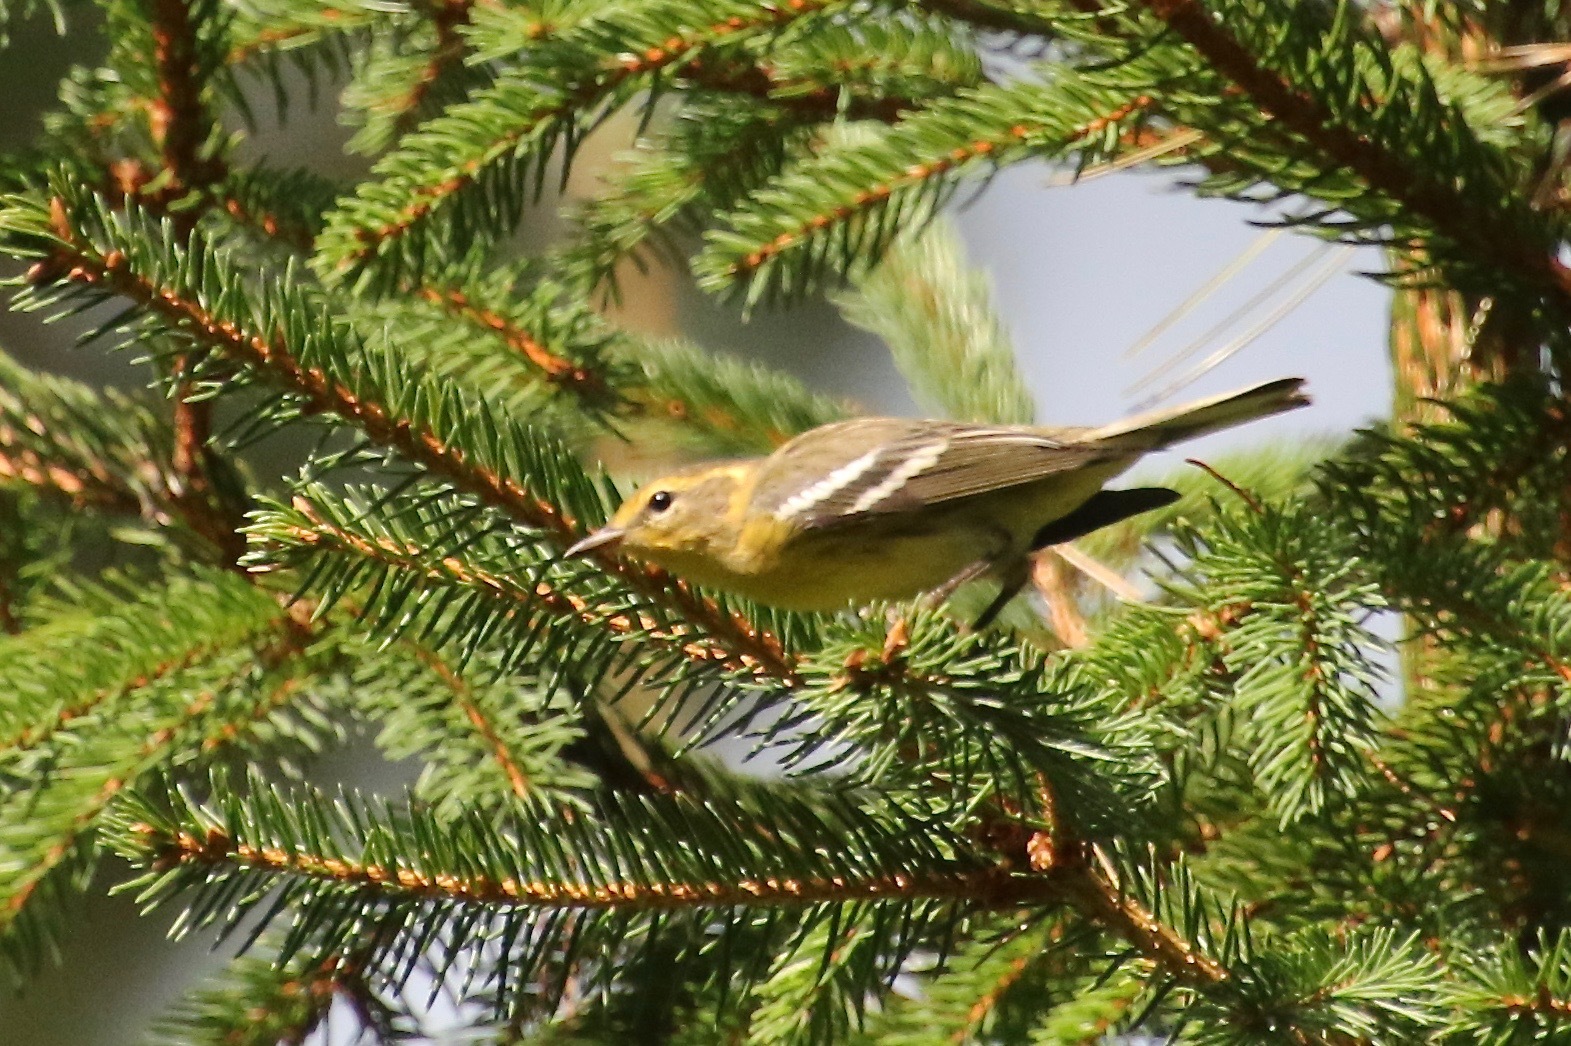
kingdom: Animalia
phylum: Chordata
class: Aves
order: Passeriformes
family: Parulidae
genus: Setophaga
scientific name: Setophaga fusca
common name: Blackburnian warbler
